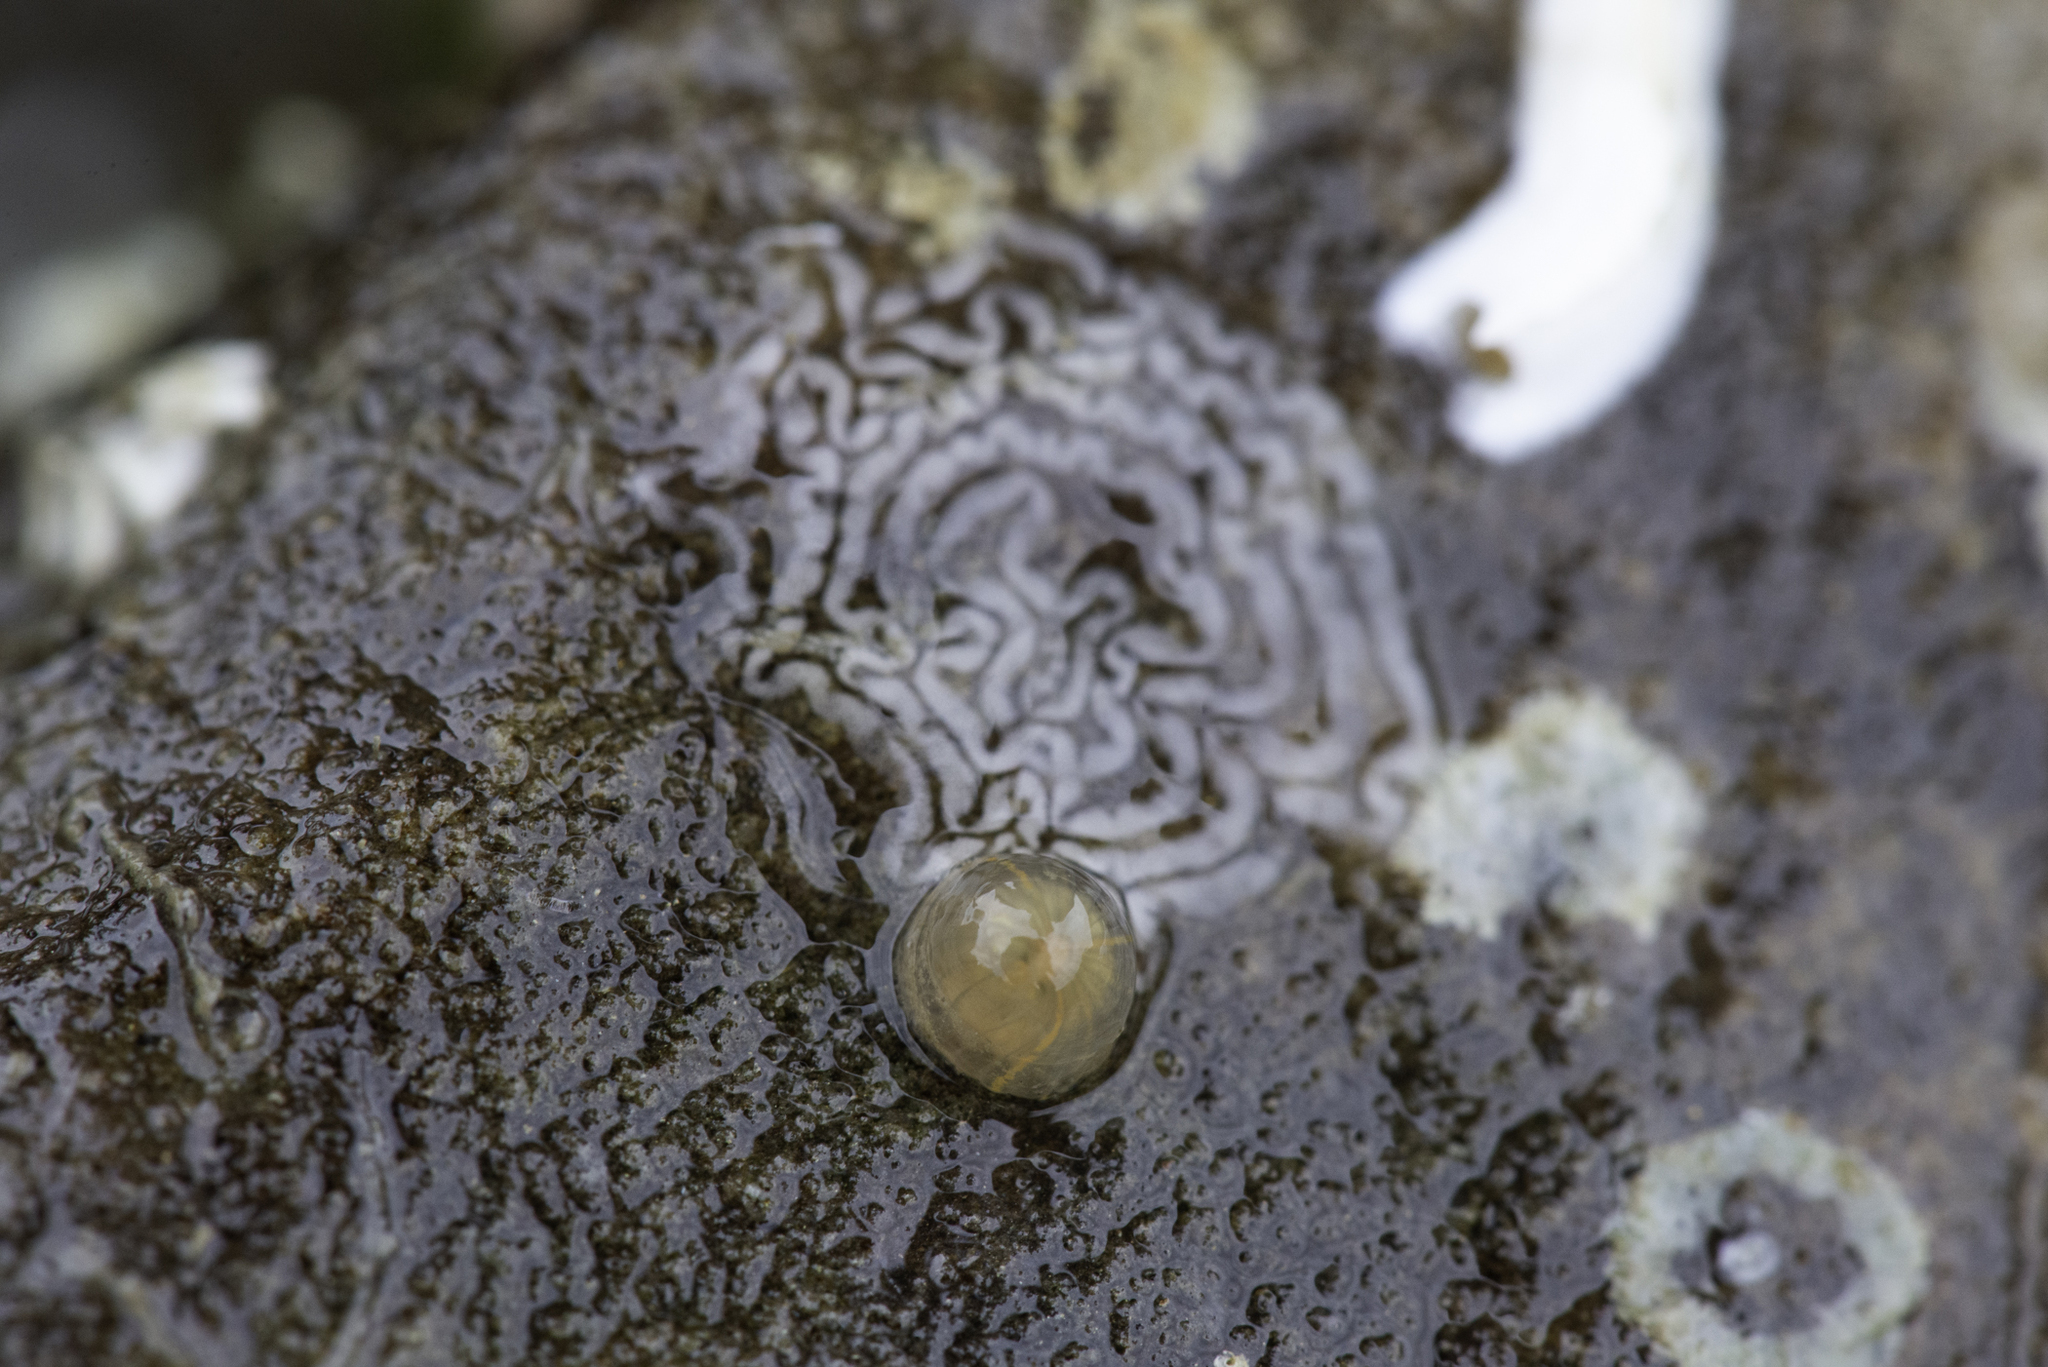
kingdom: Animalia
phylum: Cnidaria
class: Anthozoa
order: Actiniaria
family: Diadumenidae
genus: Diadumene
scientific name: Diadumene lineata
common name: Orange-striped anemone
